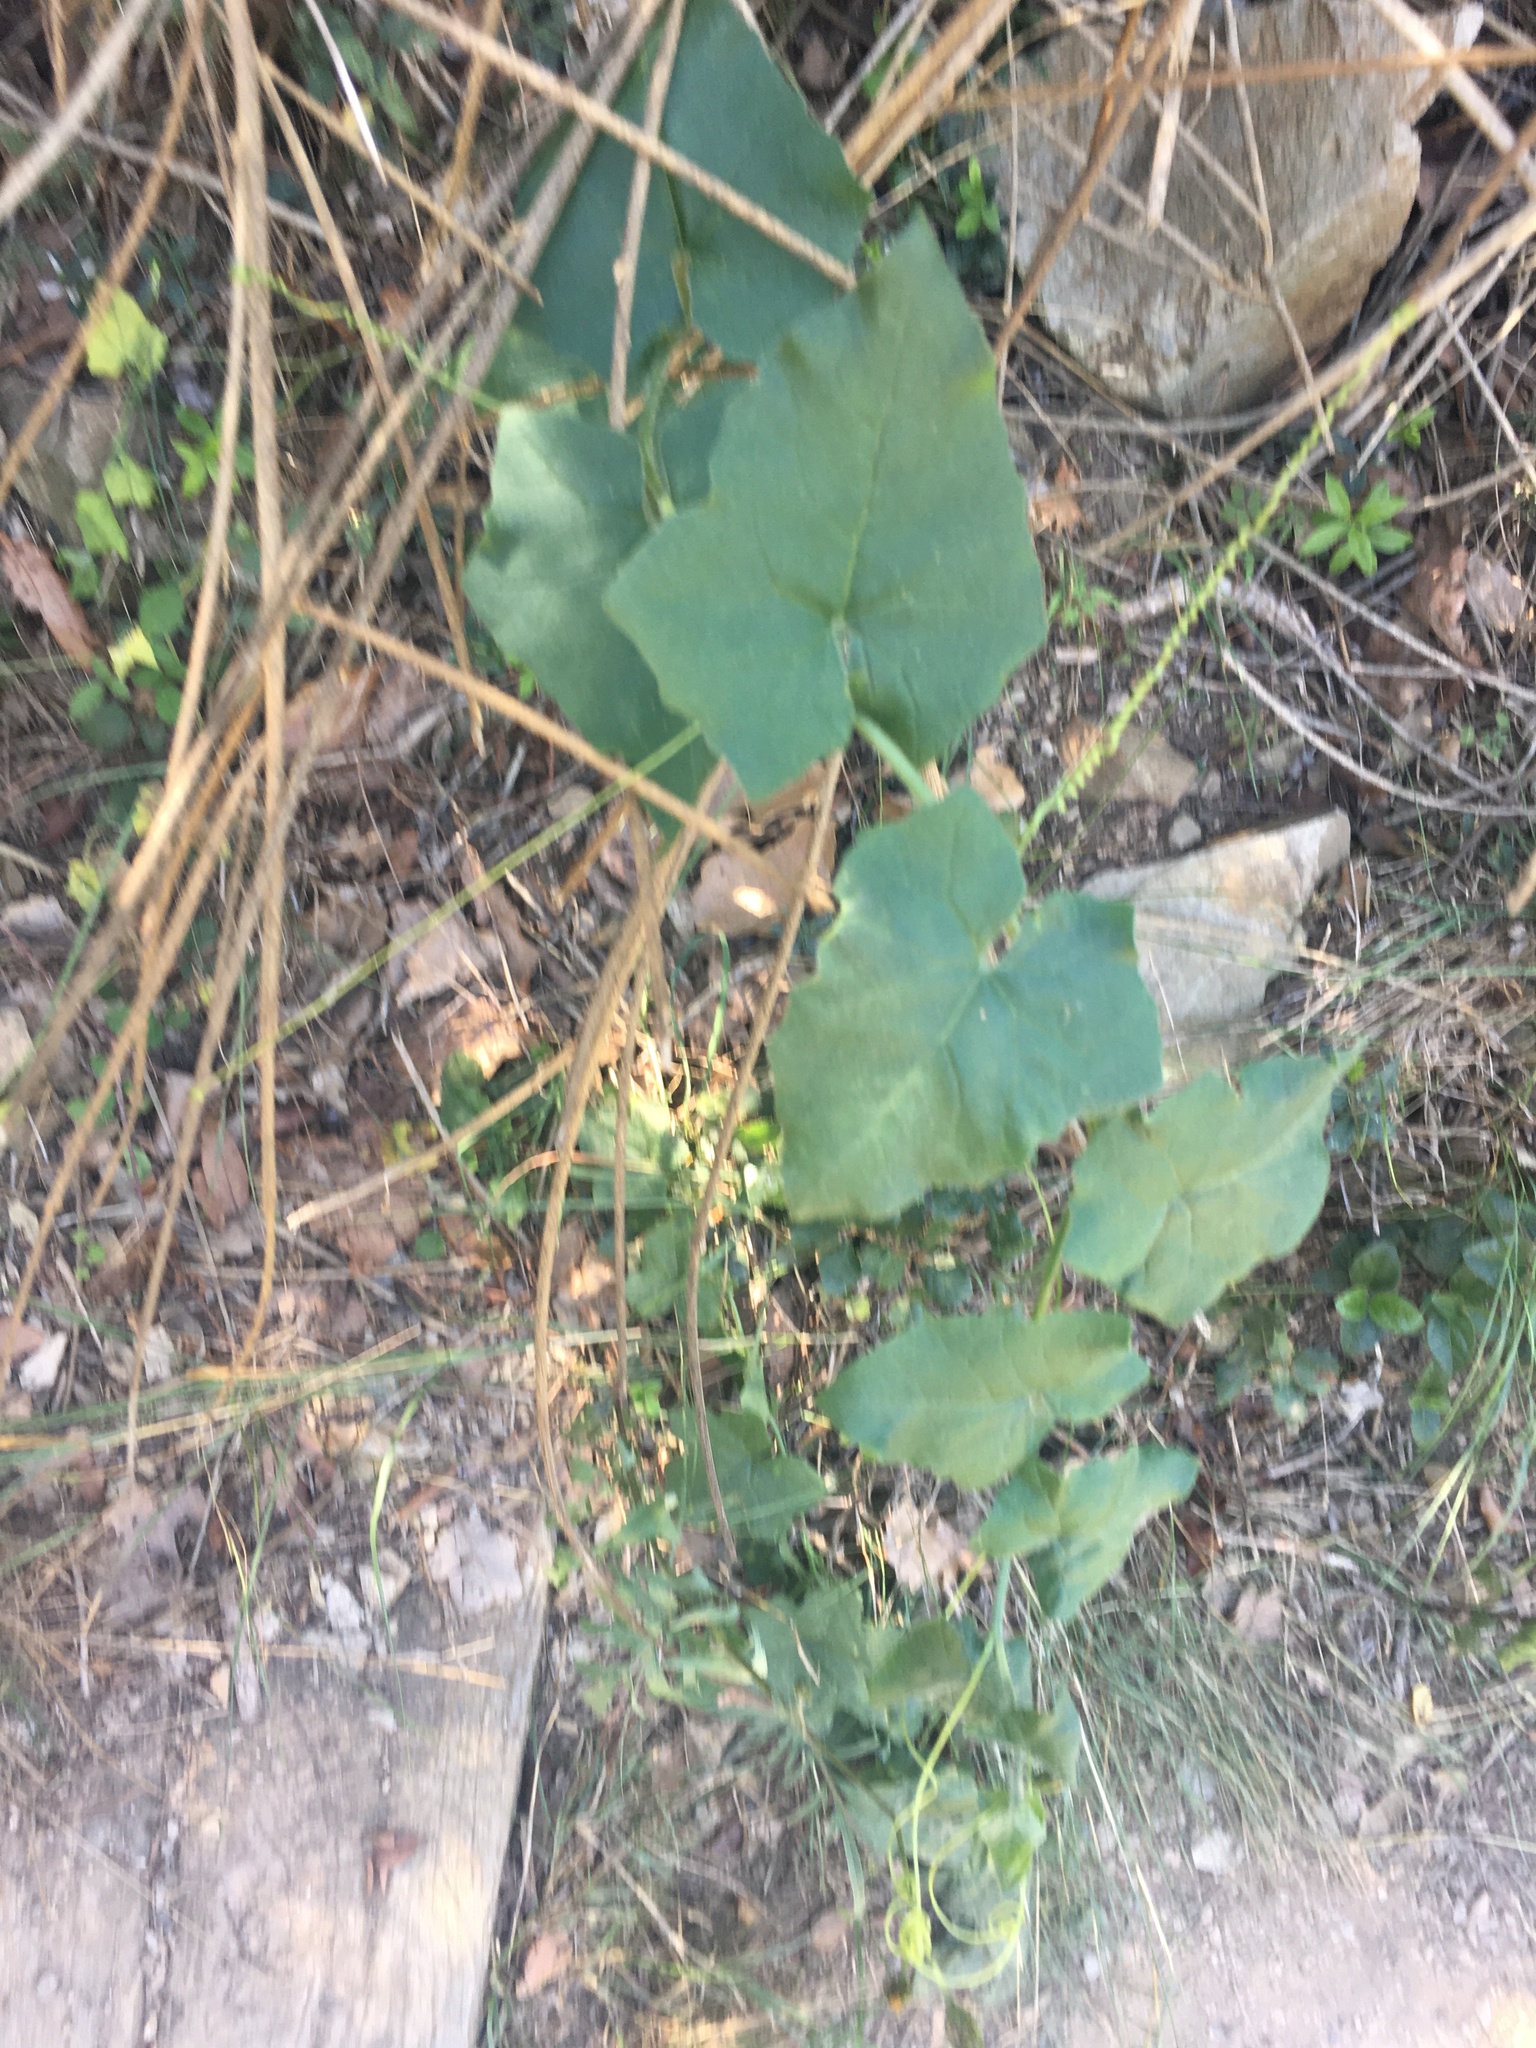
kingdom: Plantae
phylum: Tracheophyta
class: Magnoliopsida
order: Cucurbitales
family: Cucurbitaceae
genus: Bryonia
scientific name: Bryonia dioica
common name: White bryony
